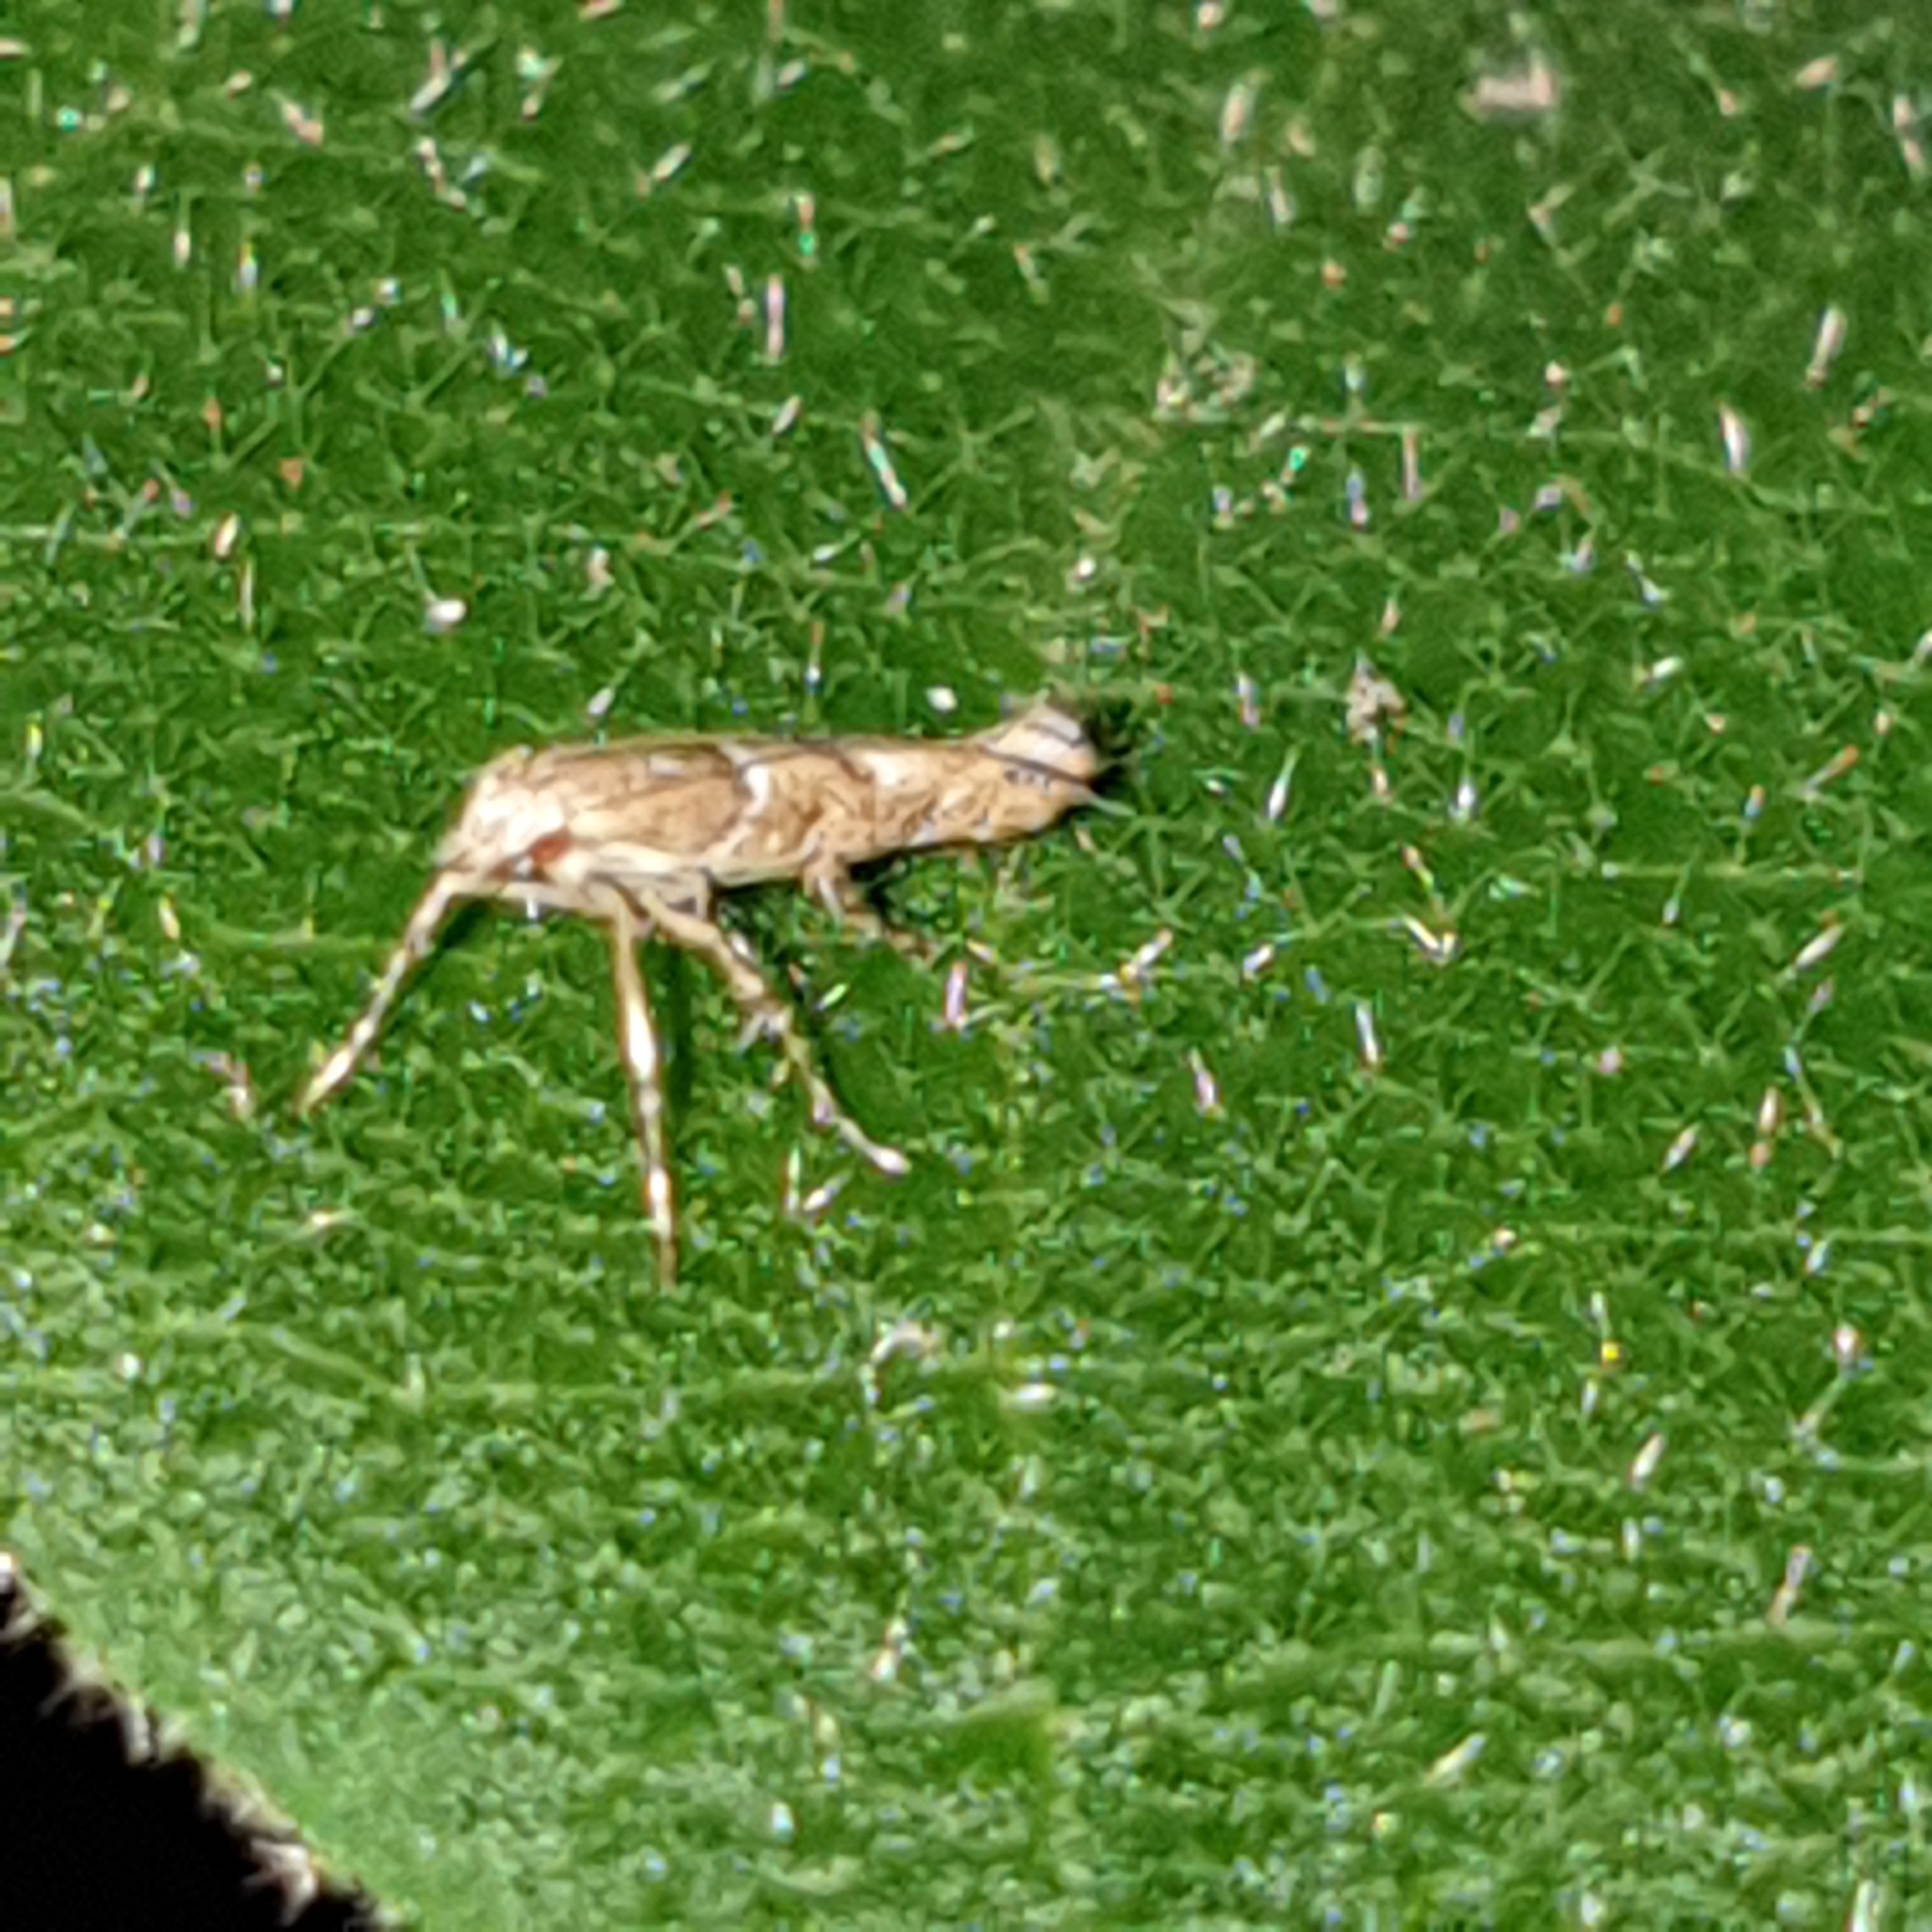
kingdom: Animalia
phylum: Arthropoda
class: Insecta
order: Lepidoptera
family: Gracillariidae
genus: Acrocercops
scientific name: Acrocercops brongniardella
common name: Brown oak slender
